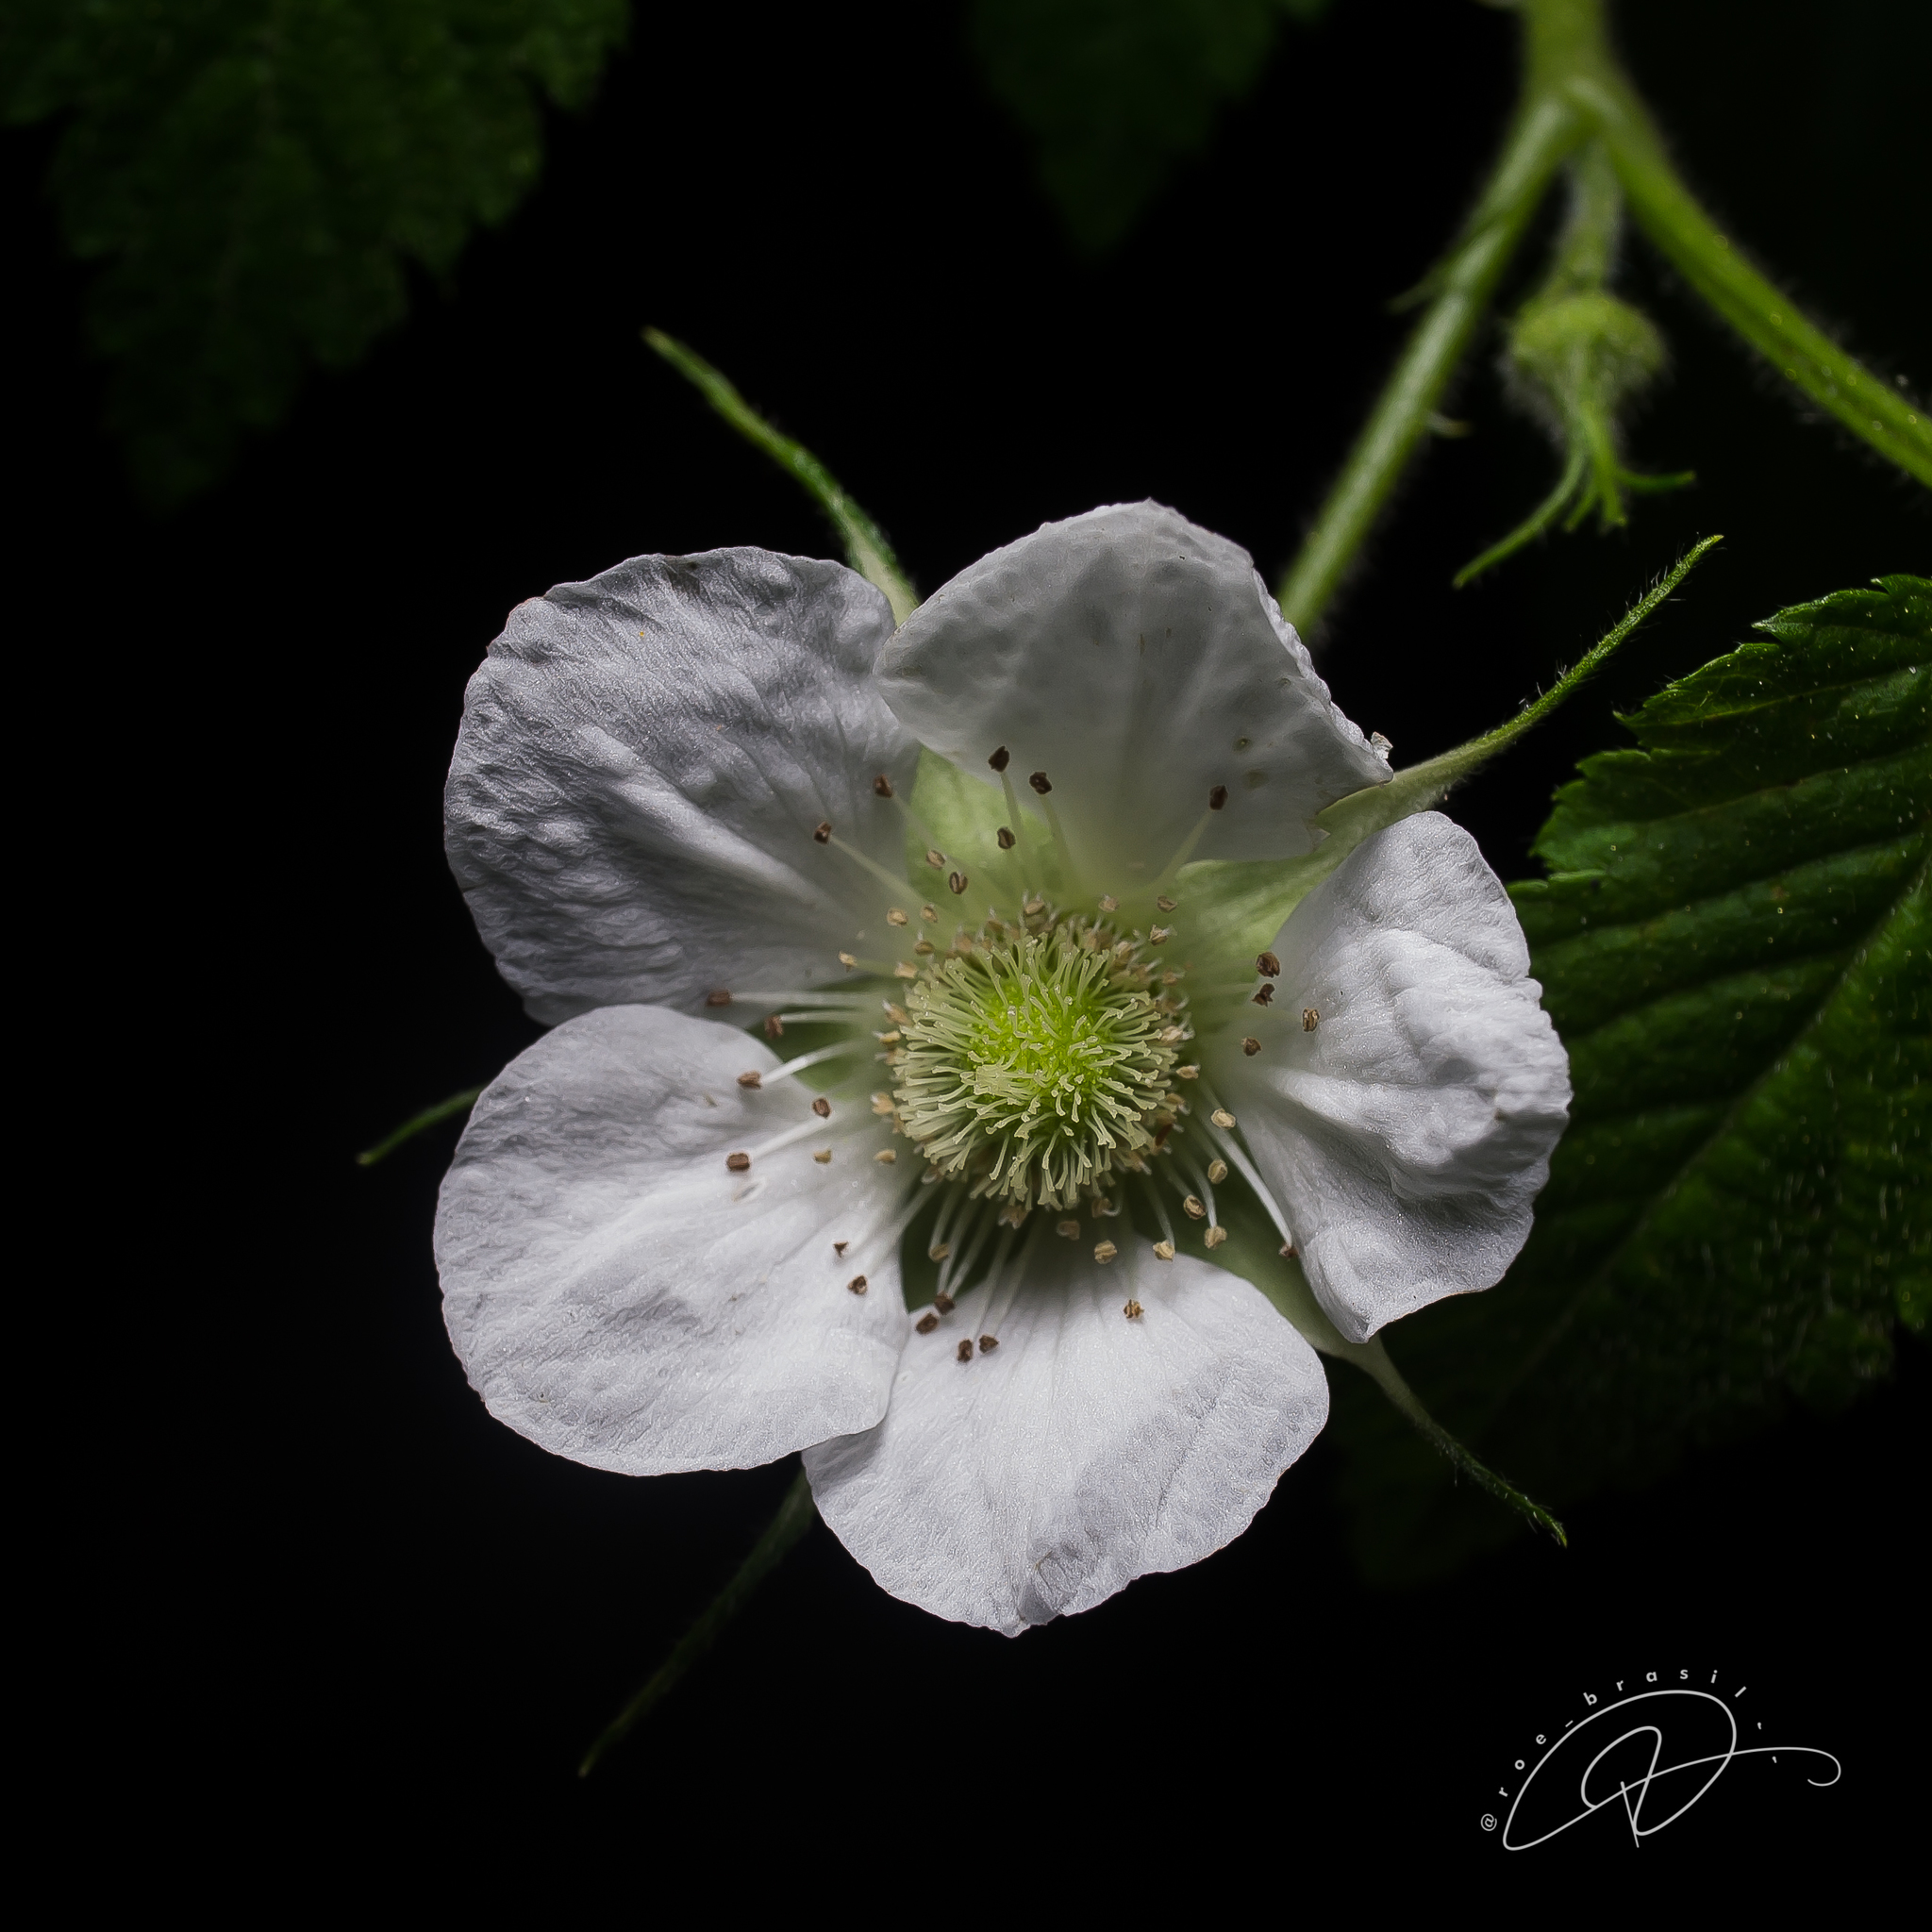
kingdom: Plantae
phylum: Tracheophyta
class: Magnoliopsida
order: Rosales
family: Rosaceae
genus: Rubus
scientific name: Rubus rosifolius
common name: Roseleaf raspberry
